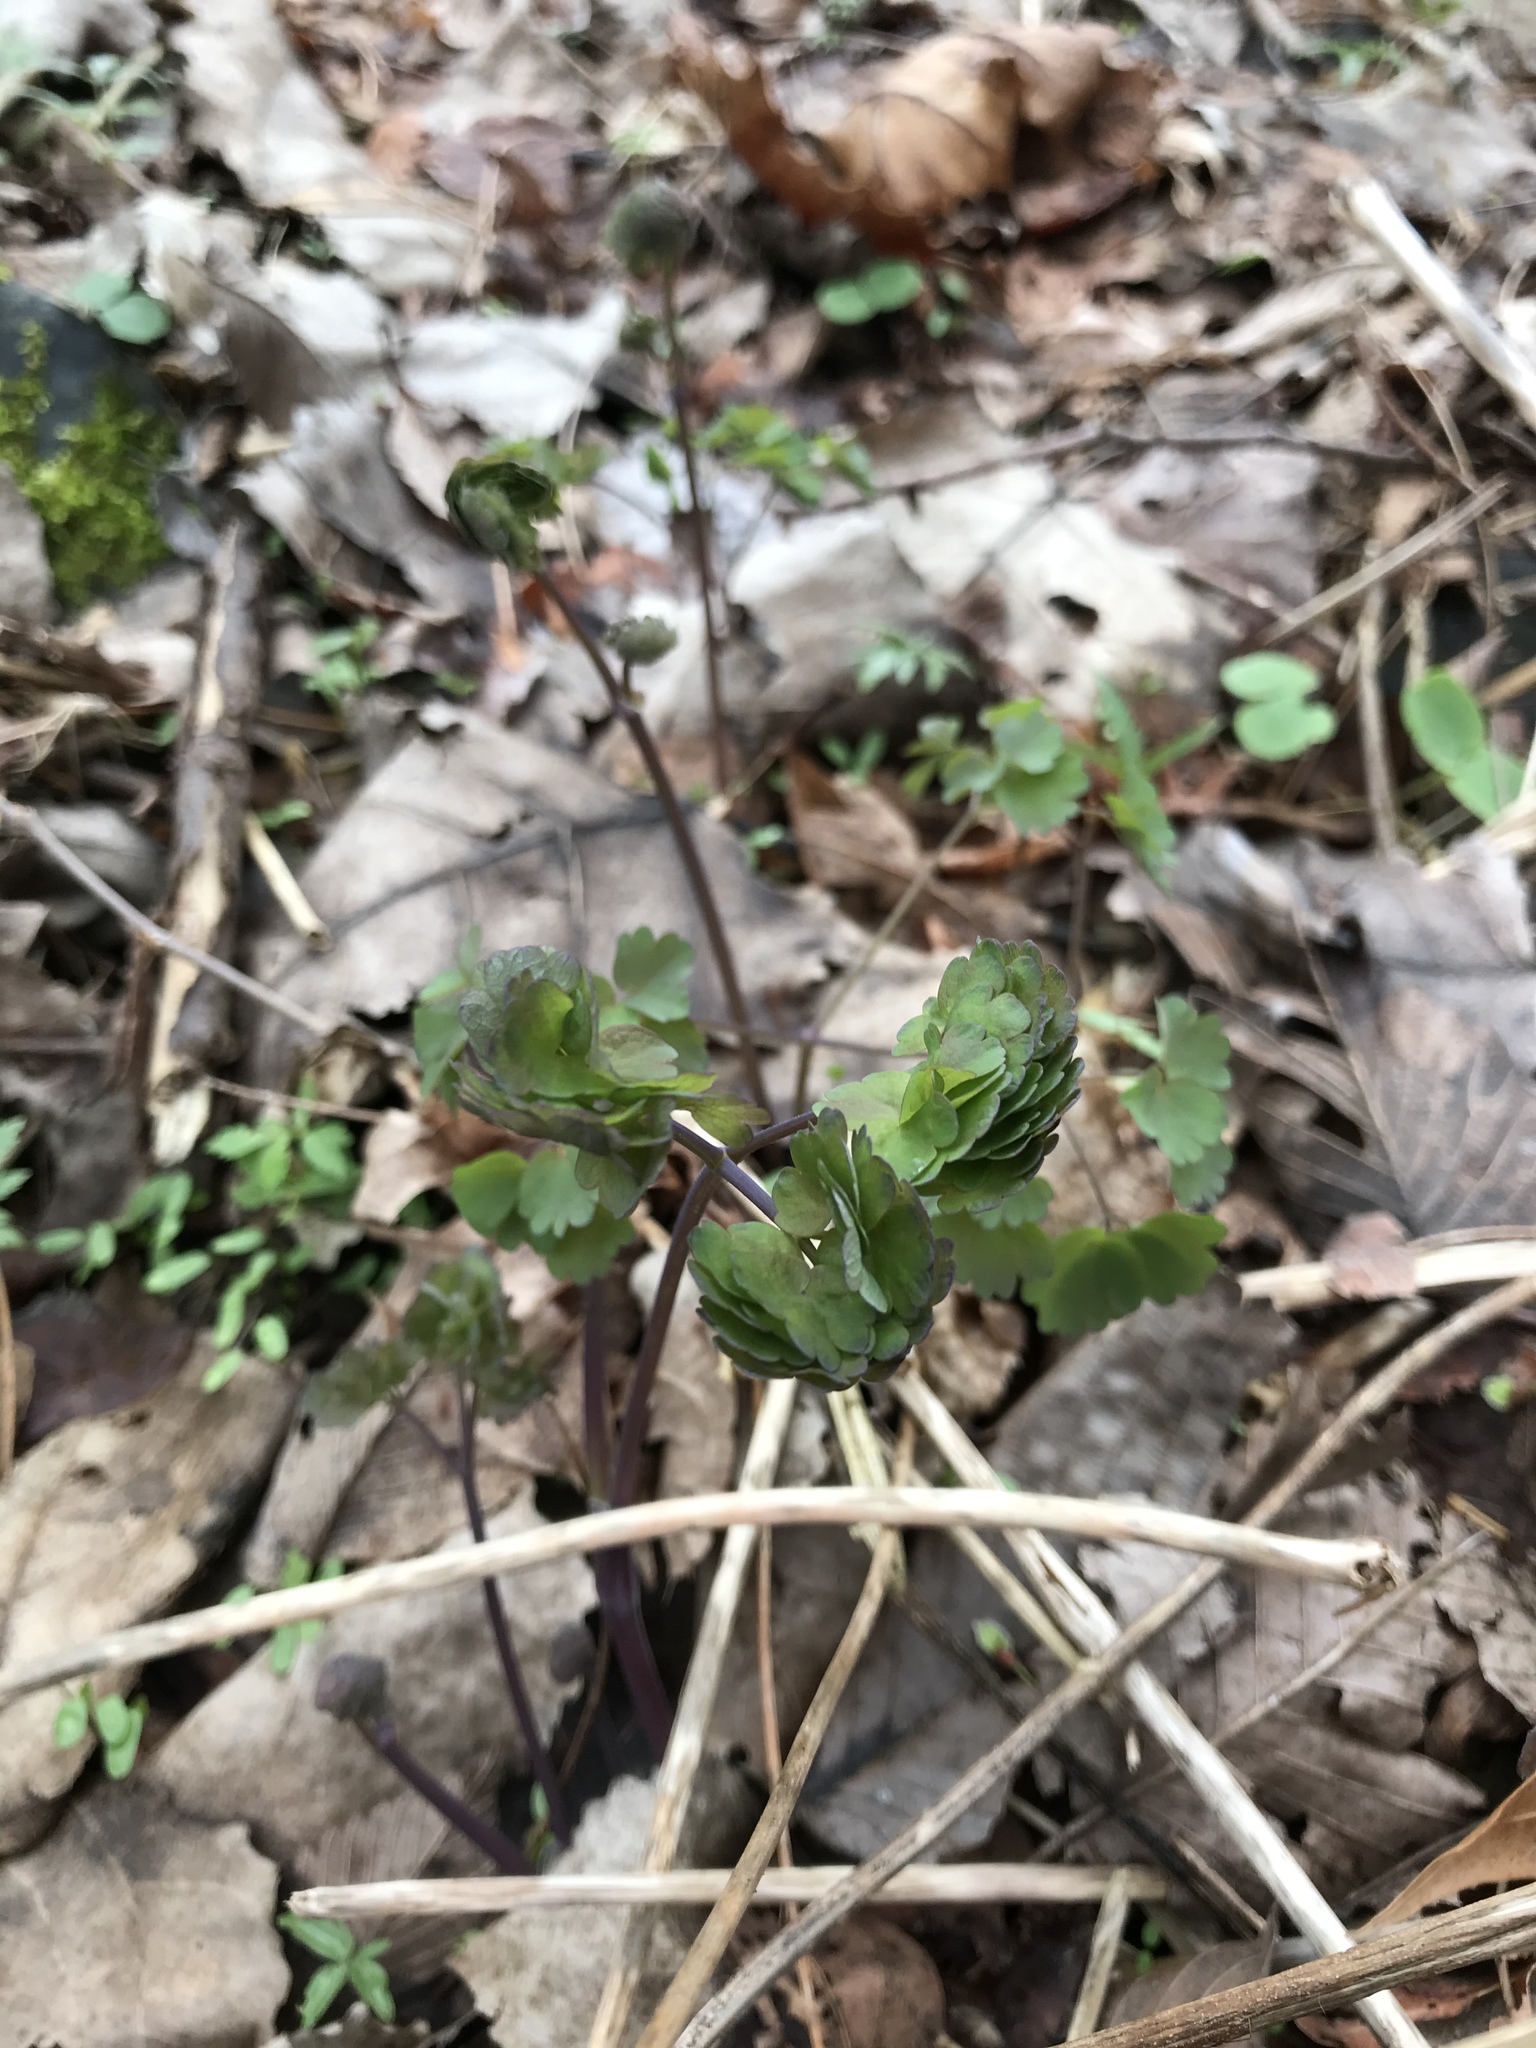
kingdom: Plantae
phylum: Tracheophyta
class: Magnoliopsida
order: Ranunculales
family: Ranunculaceae
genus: Thalictrum
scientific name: Thalictrum dioicum
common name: Early meadow-rue
